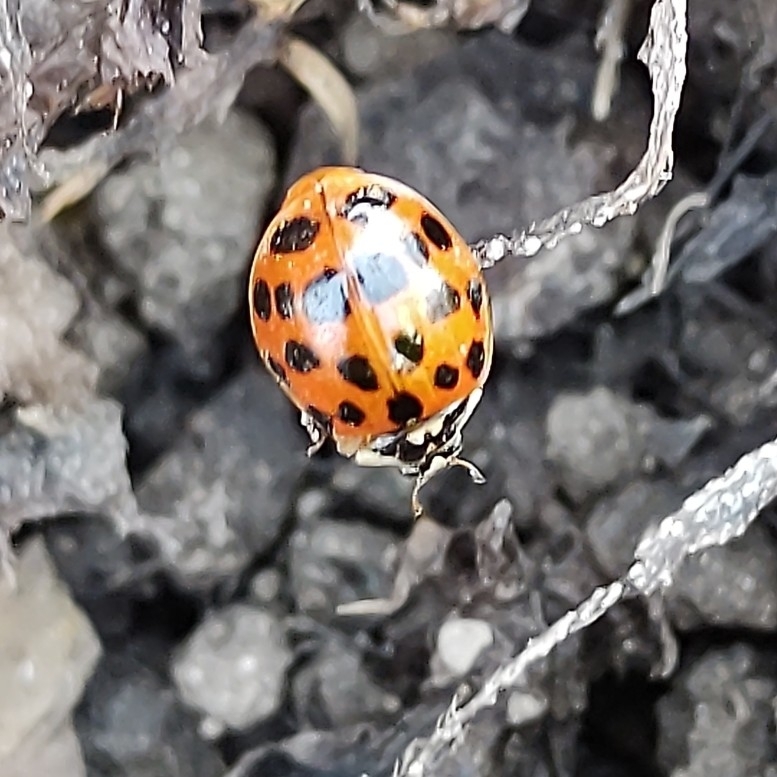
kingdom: Animalia
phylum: Arthropoda
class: Insecta
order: Coleoptera
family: Coccinellidae
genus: Harmonia
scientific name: Harmonia axyridis
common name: Harlequin ladybird
